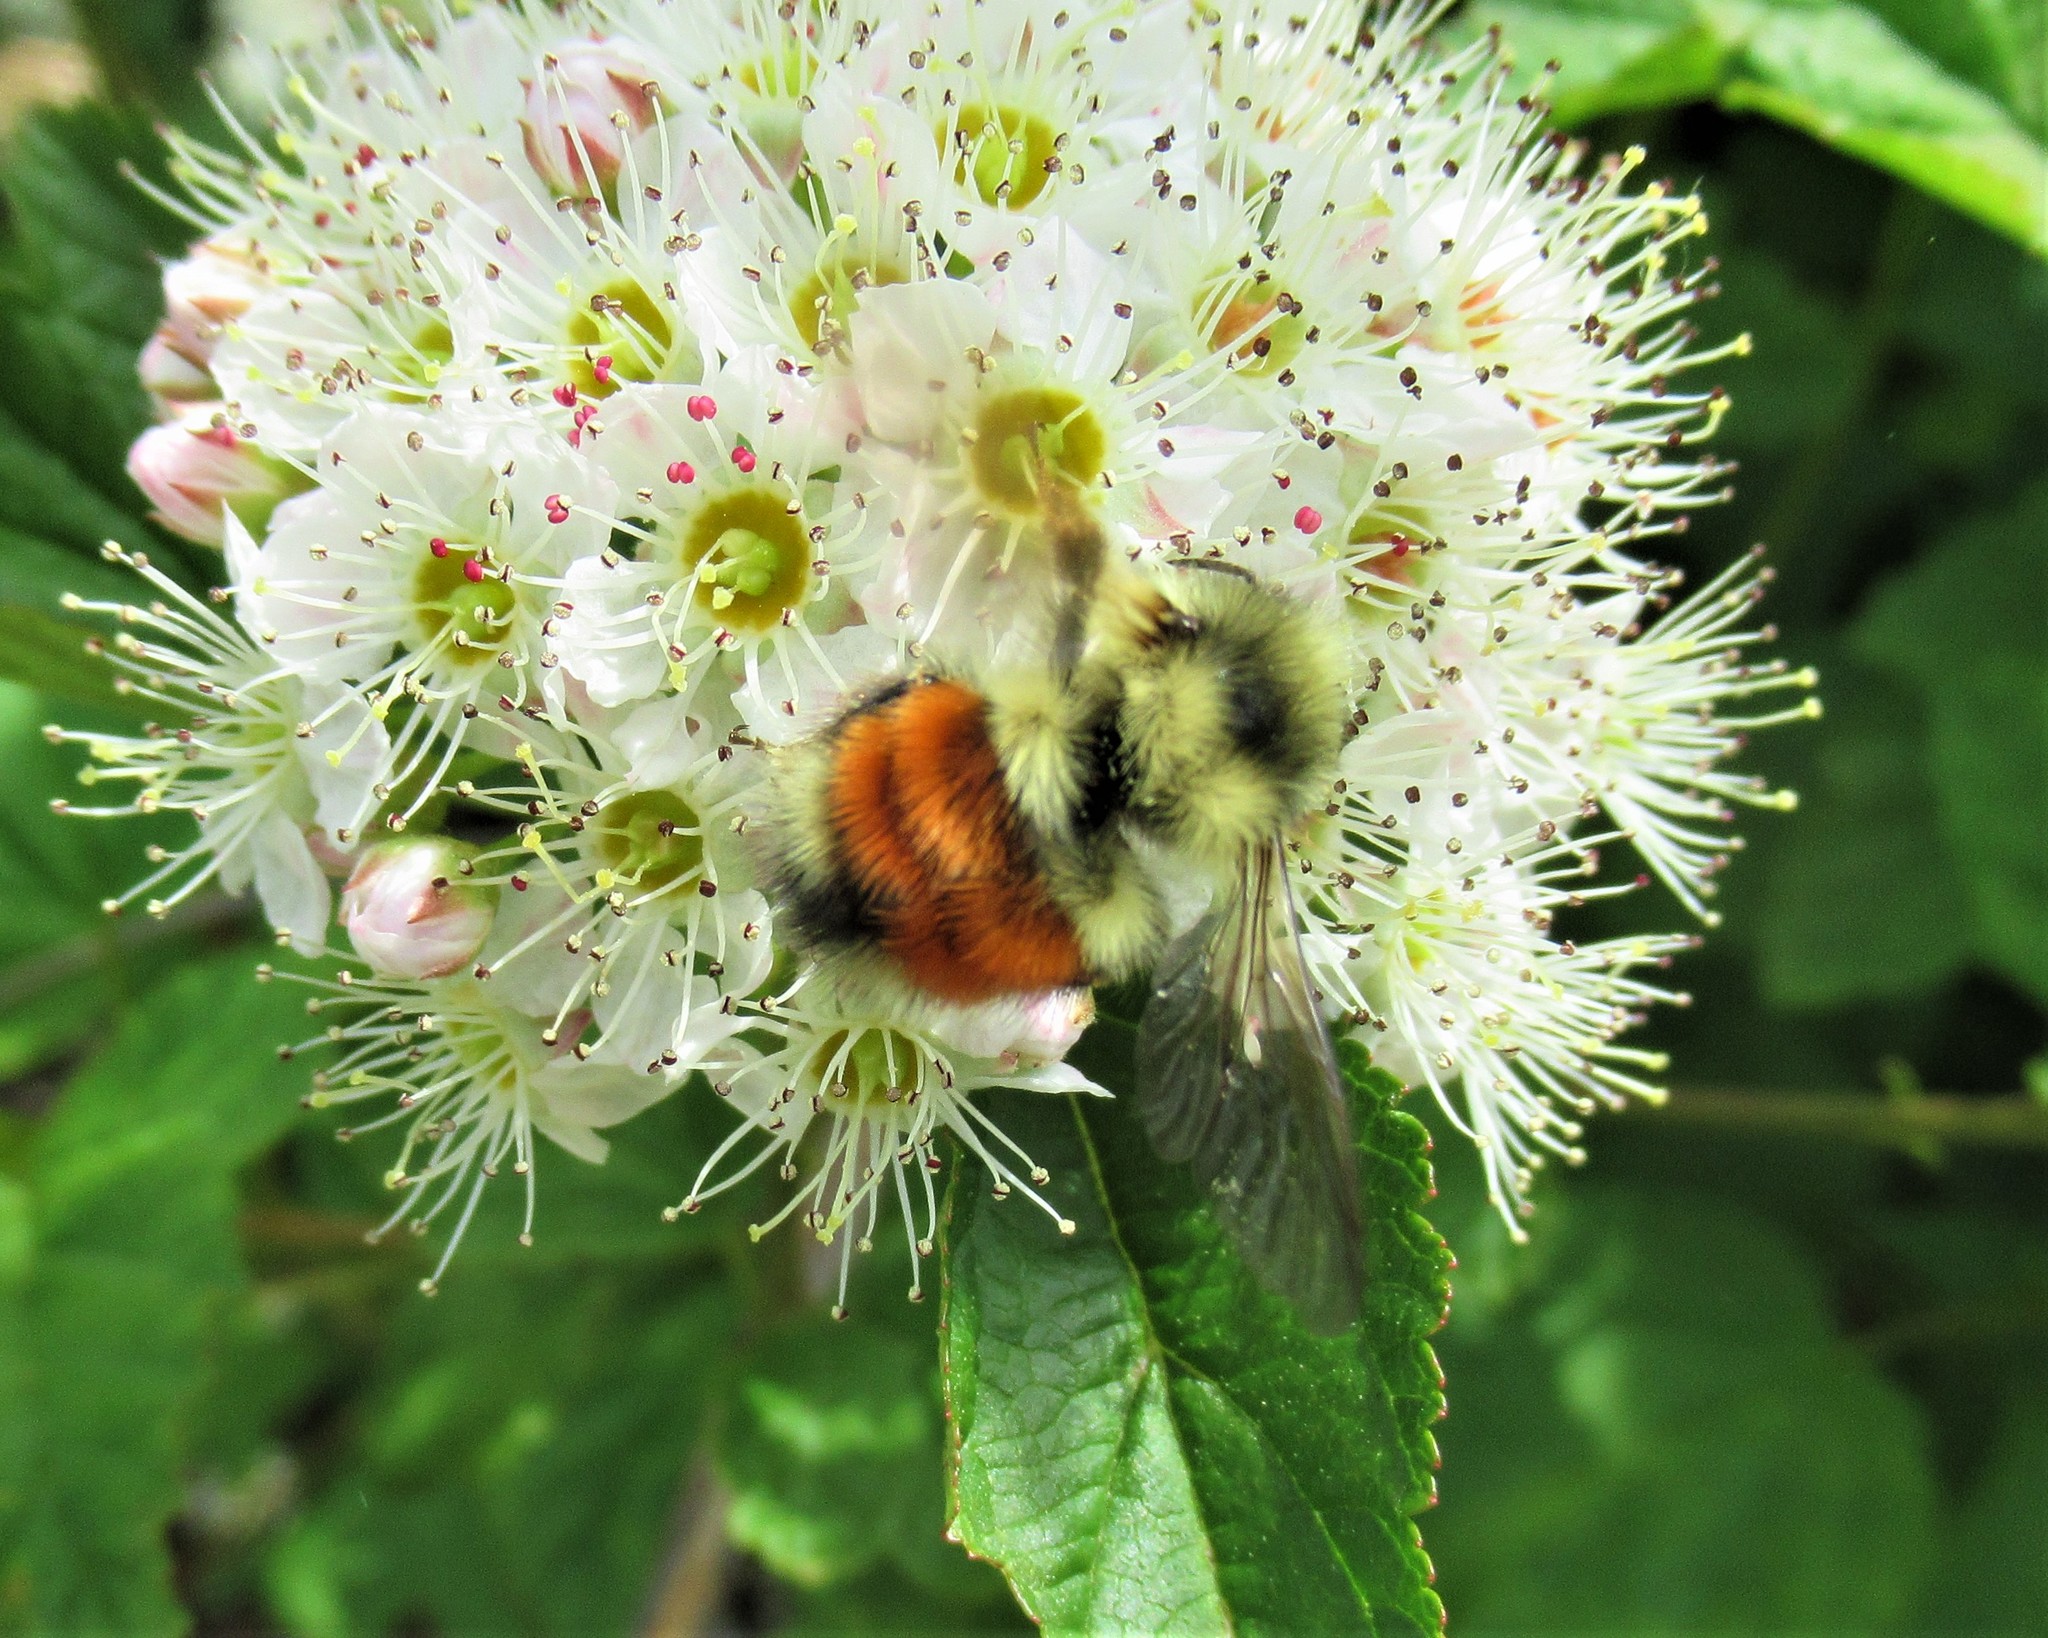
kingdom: Animalia
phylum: Arthropoda
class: Insecta
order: Hymenoptera
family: Apidae
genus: Bombus
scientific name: Bombus melanopygus
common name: Black tail bumble bee
